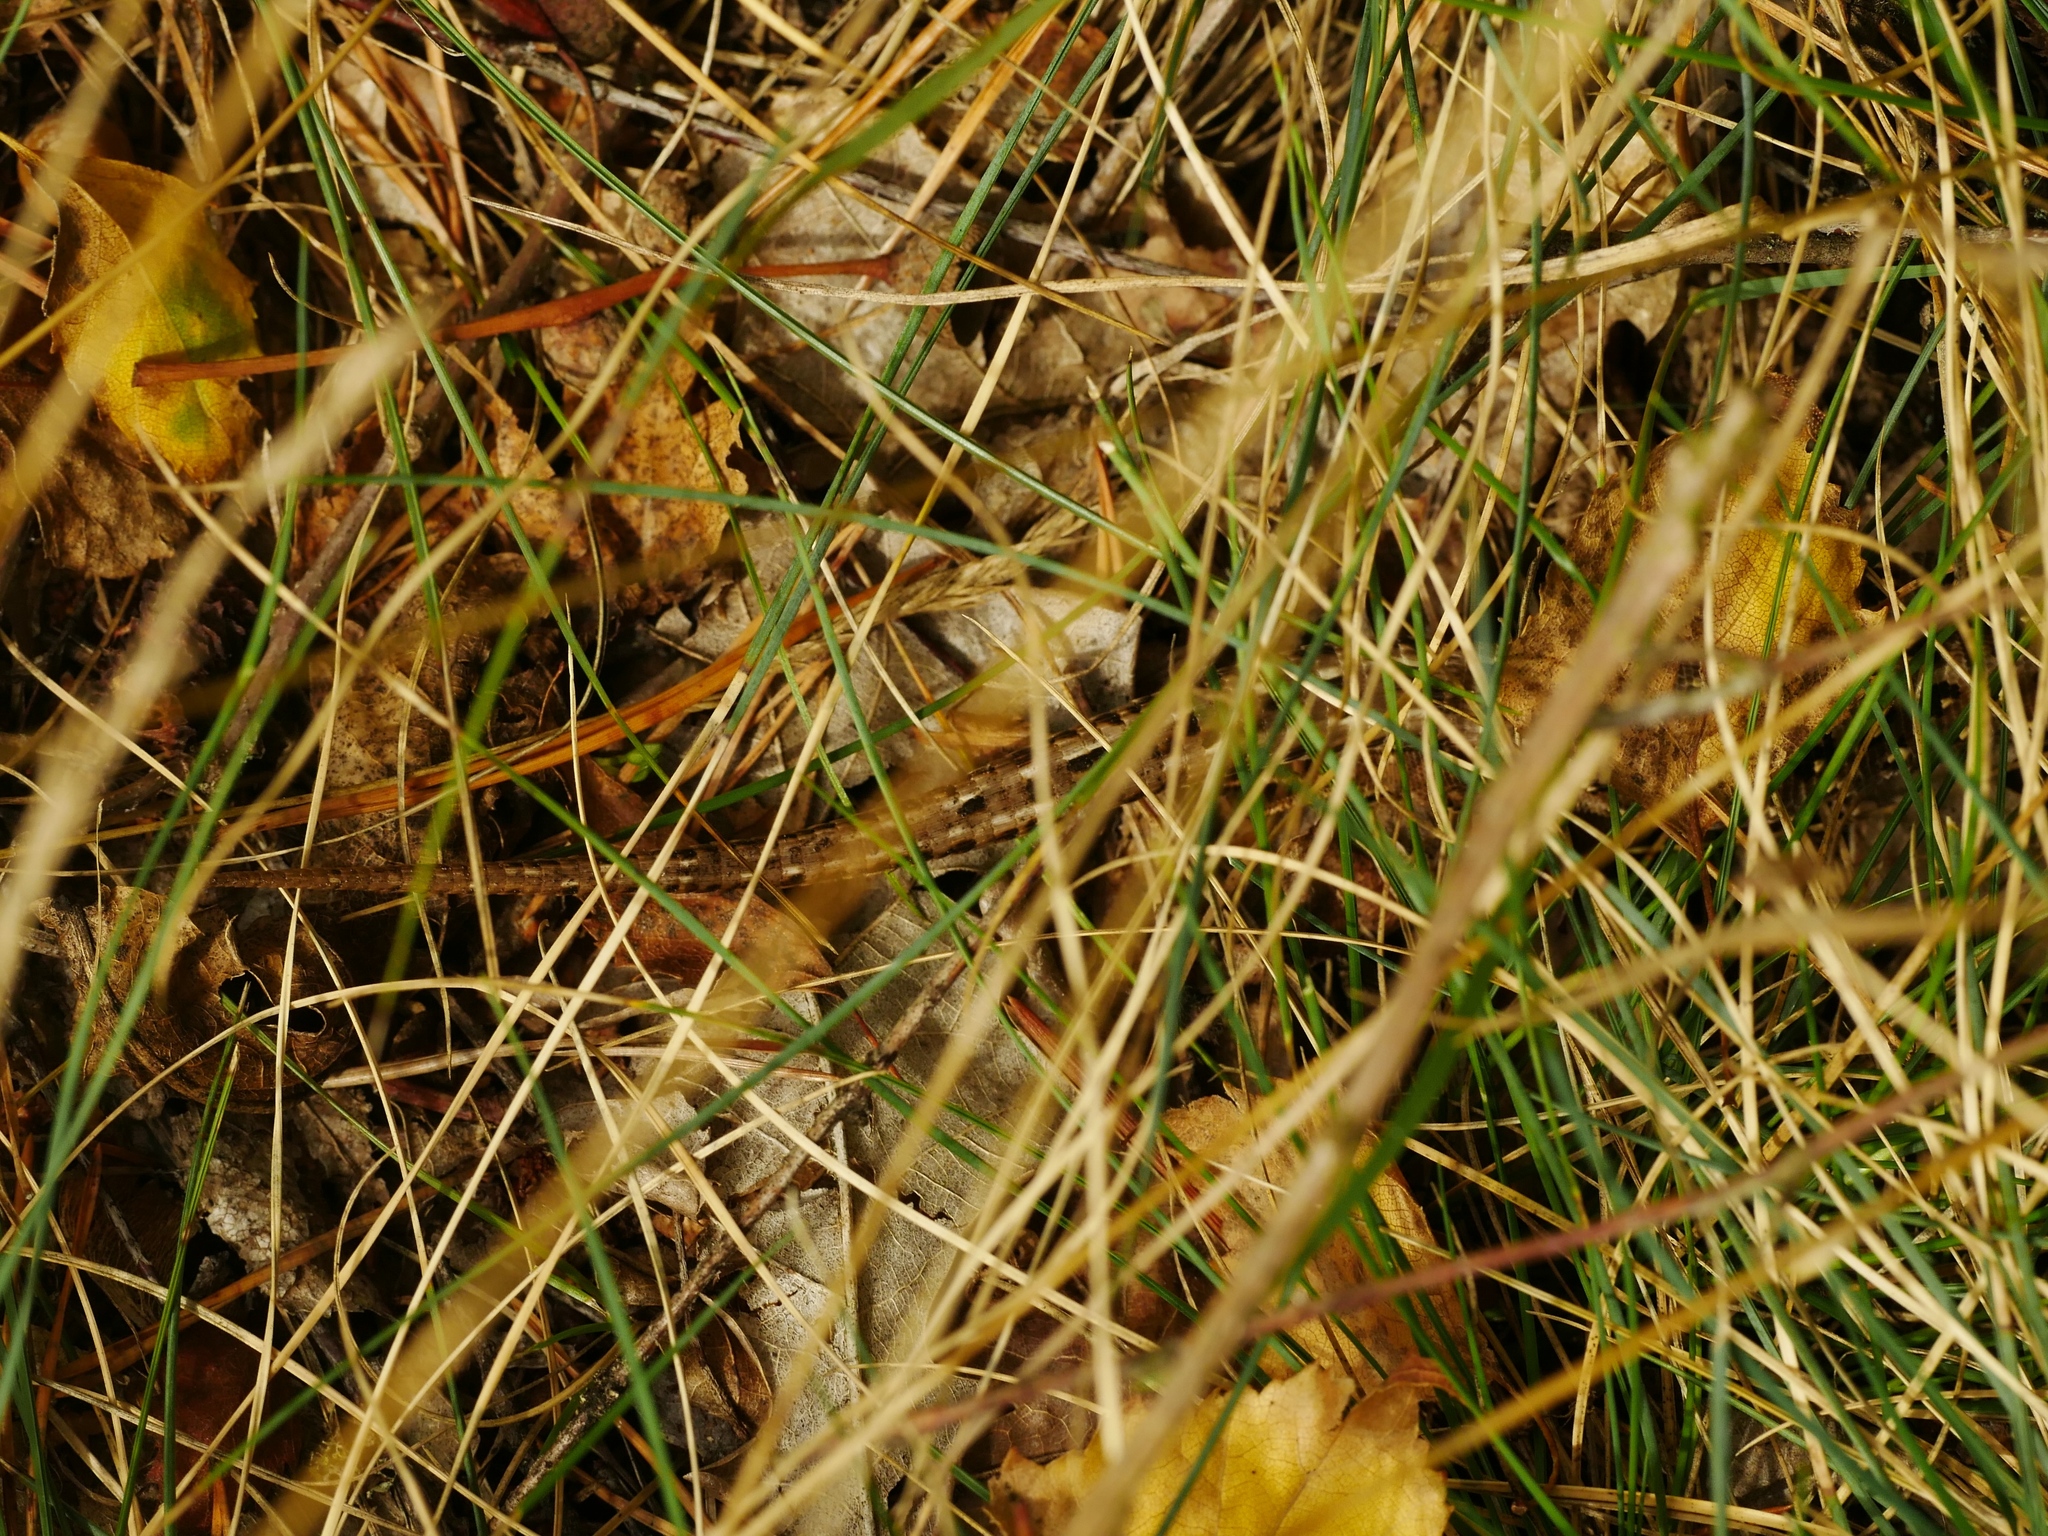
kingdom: Animalia
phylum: Chordata
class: Squamata
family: Lacertidae
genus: Lacerta
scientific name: Lacerta agilis
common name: Sand lizard
